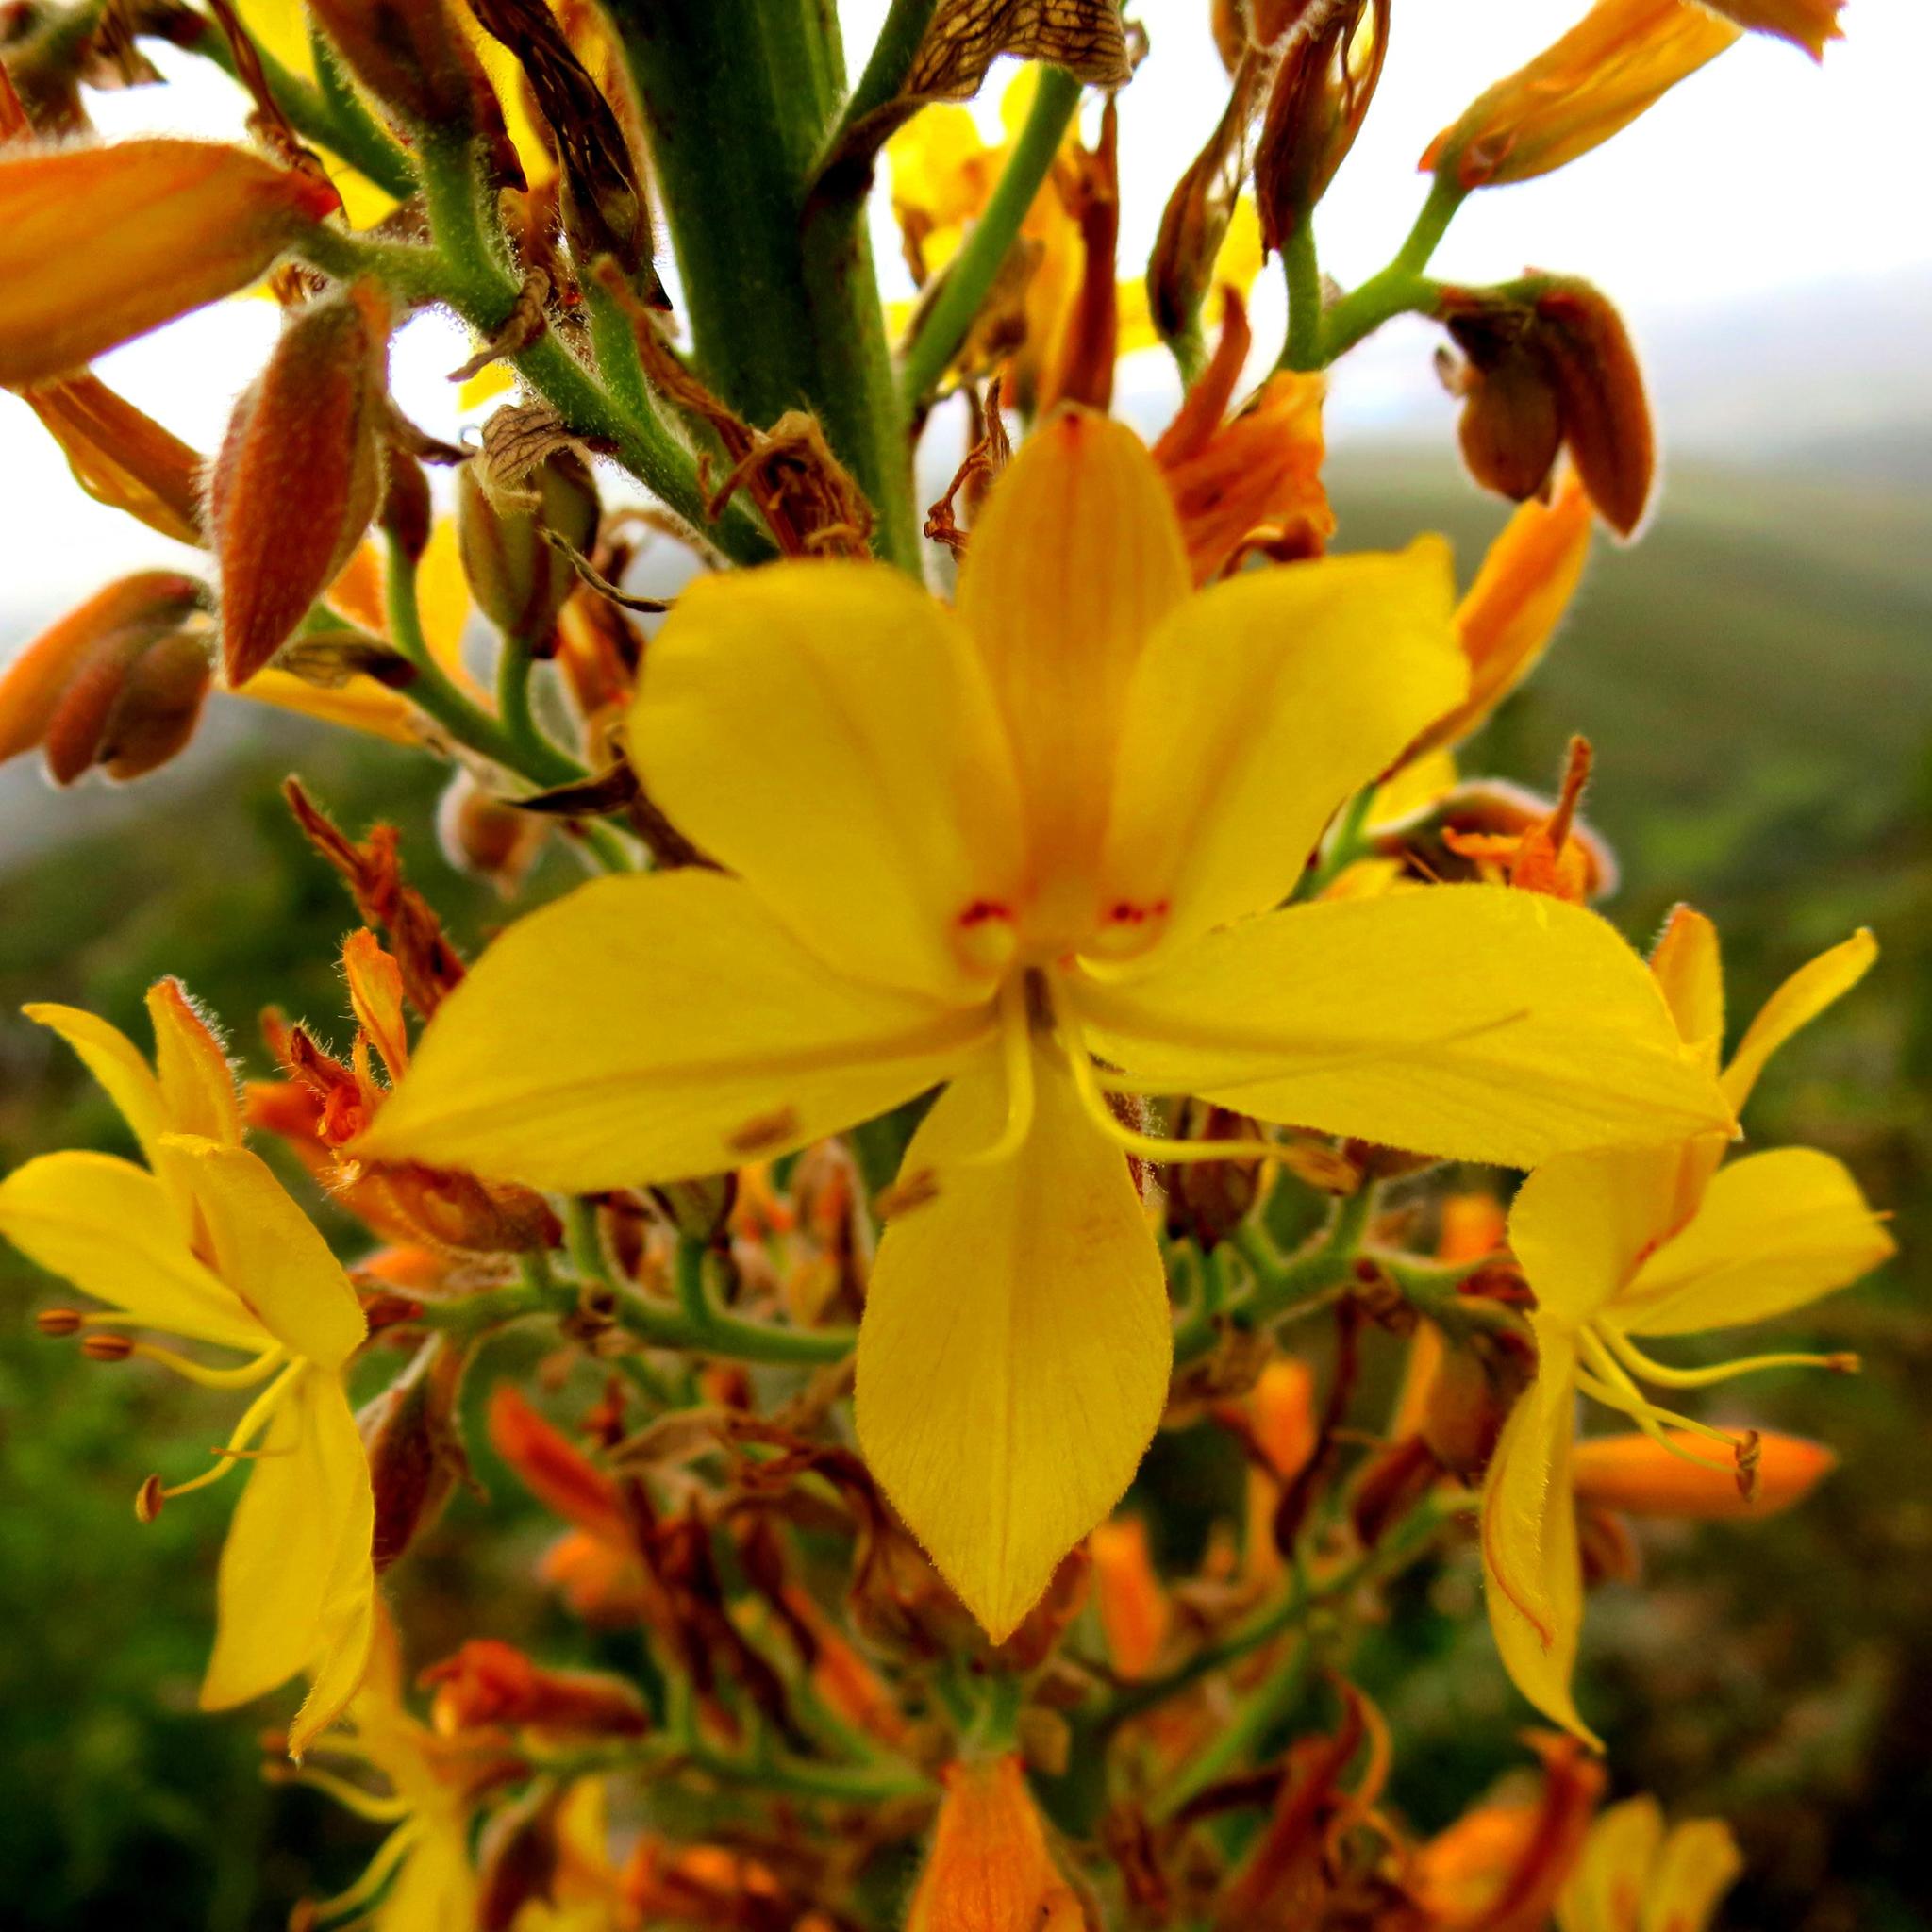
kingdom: Plantae
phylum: Tracheophyta
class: Liliopsida
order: Commelinales
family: Haemodoraceae
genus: Wachendorfia
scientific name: Wachendorfia thyrsiflora
